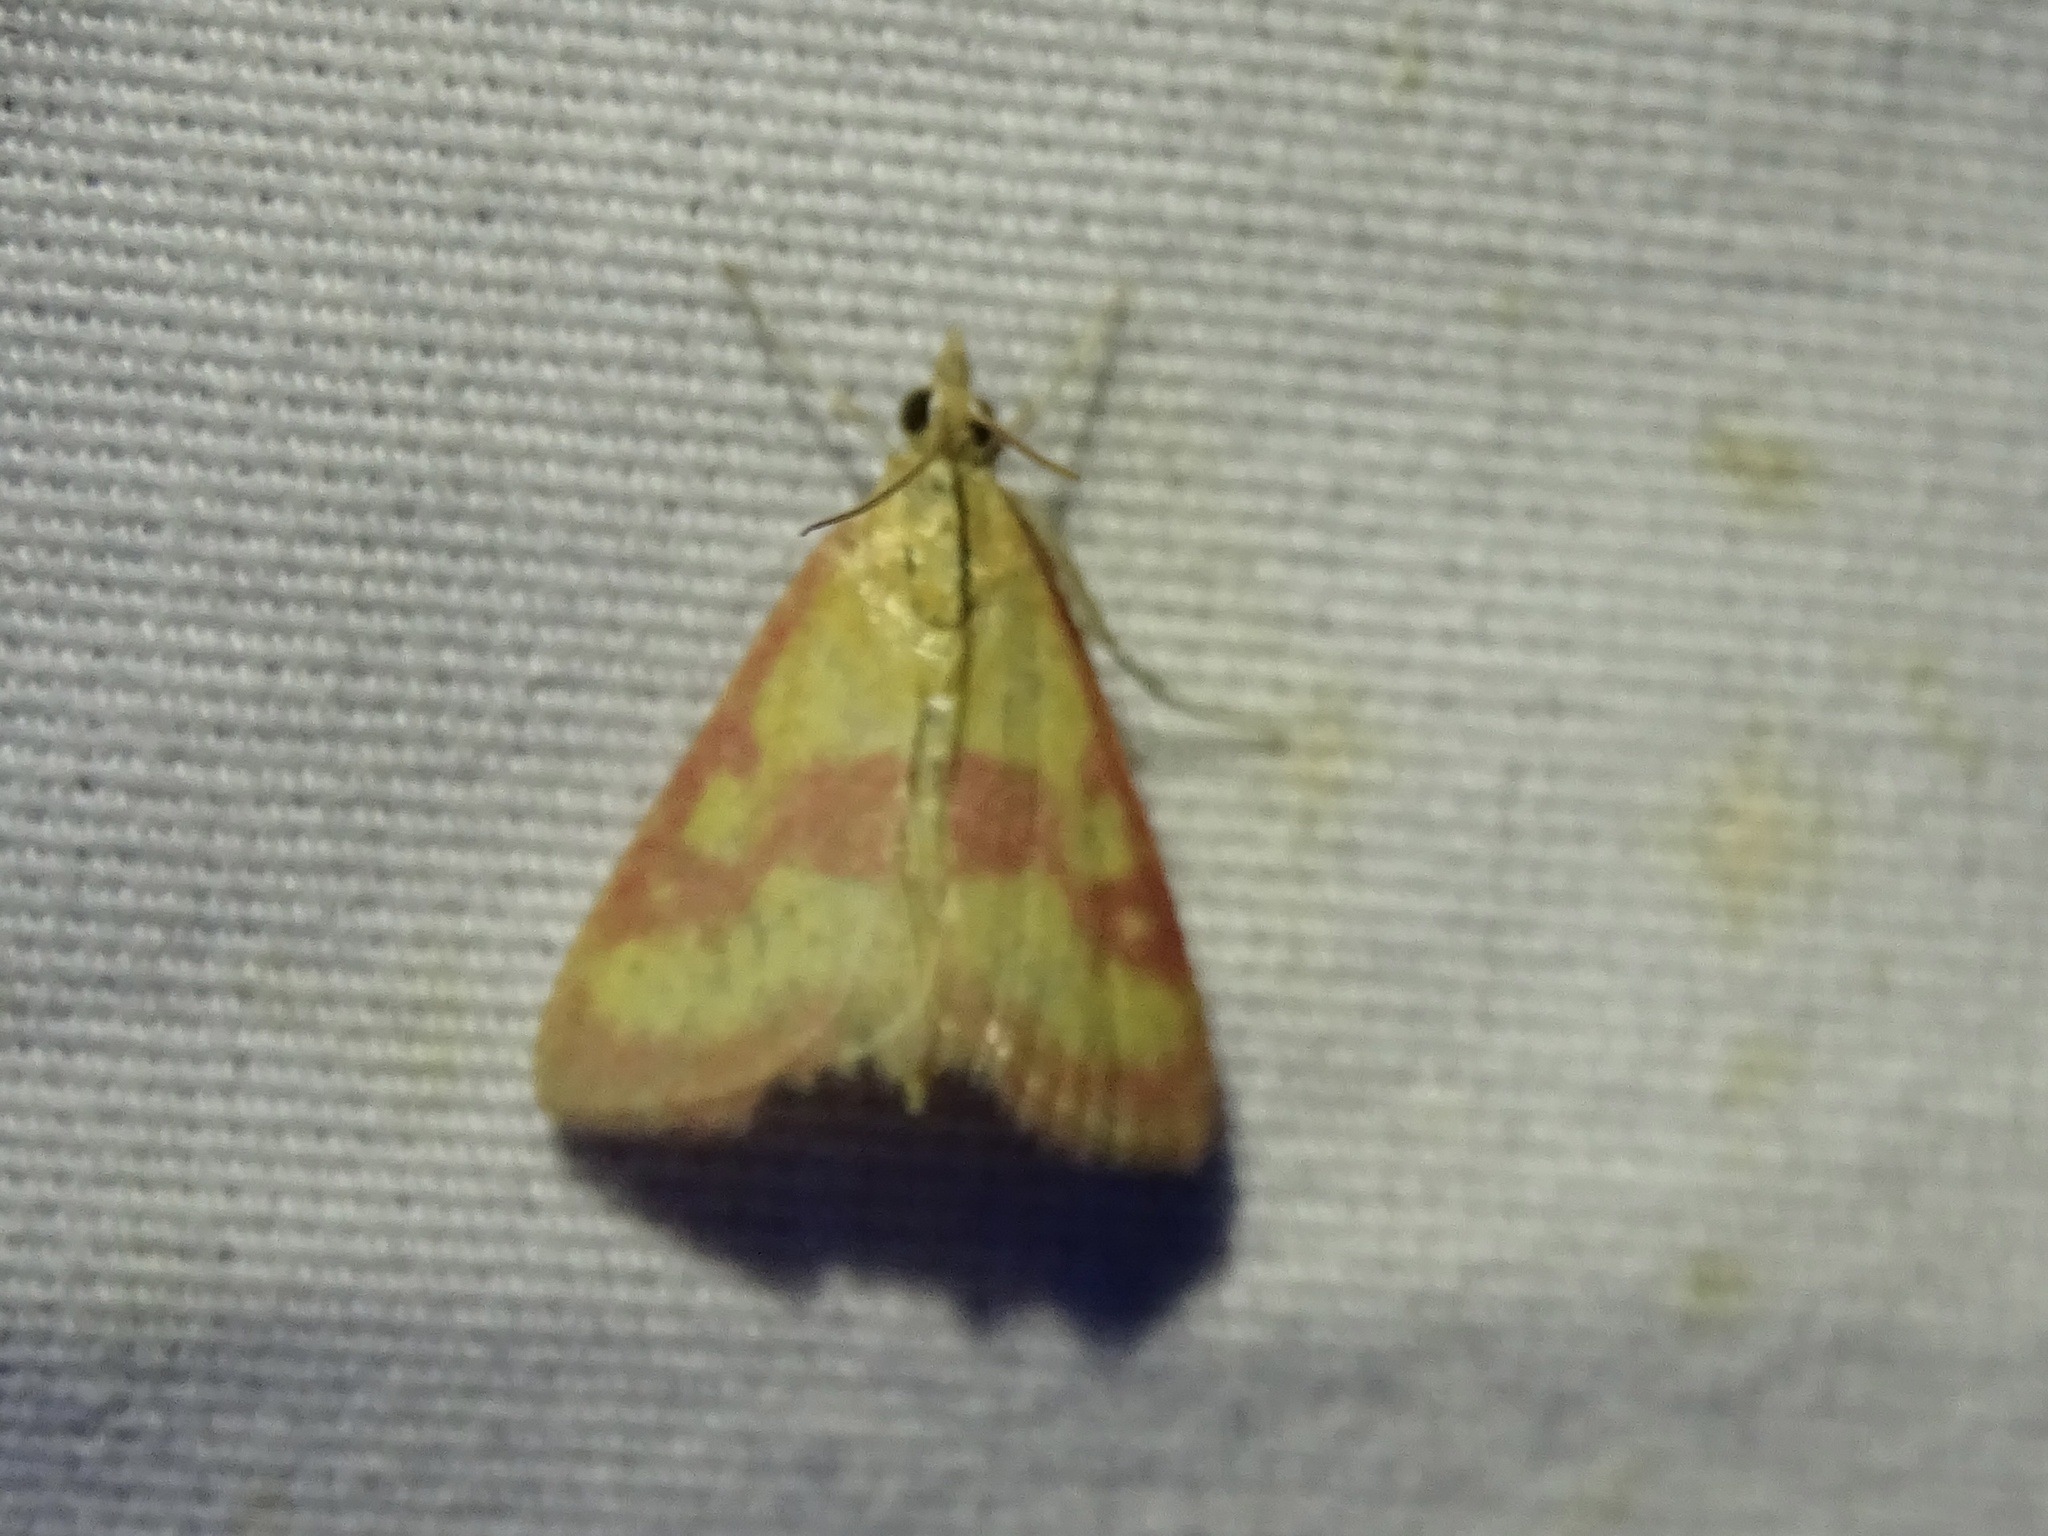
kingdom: Animalia
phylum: Arthropoda
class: Insecta
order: Lepidoptera
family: Crambidae
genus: Pyrausta
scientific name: Pyrausta laticlavia
